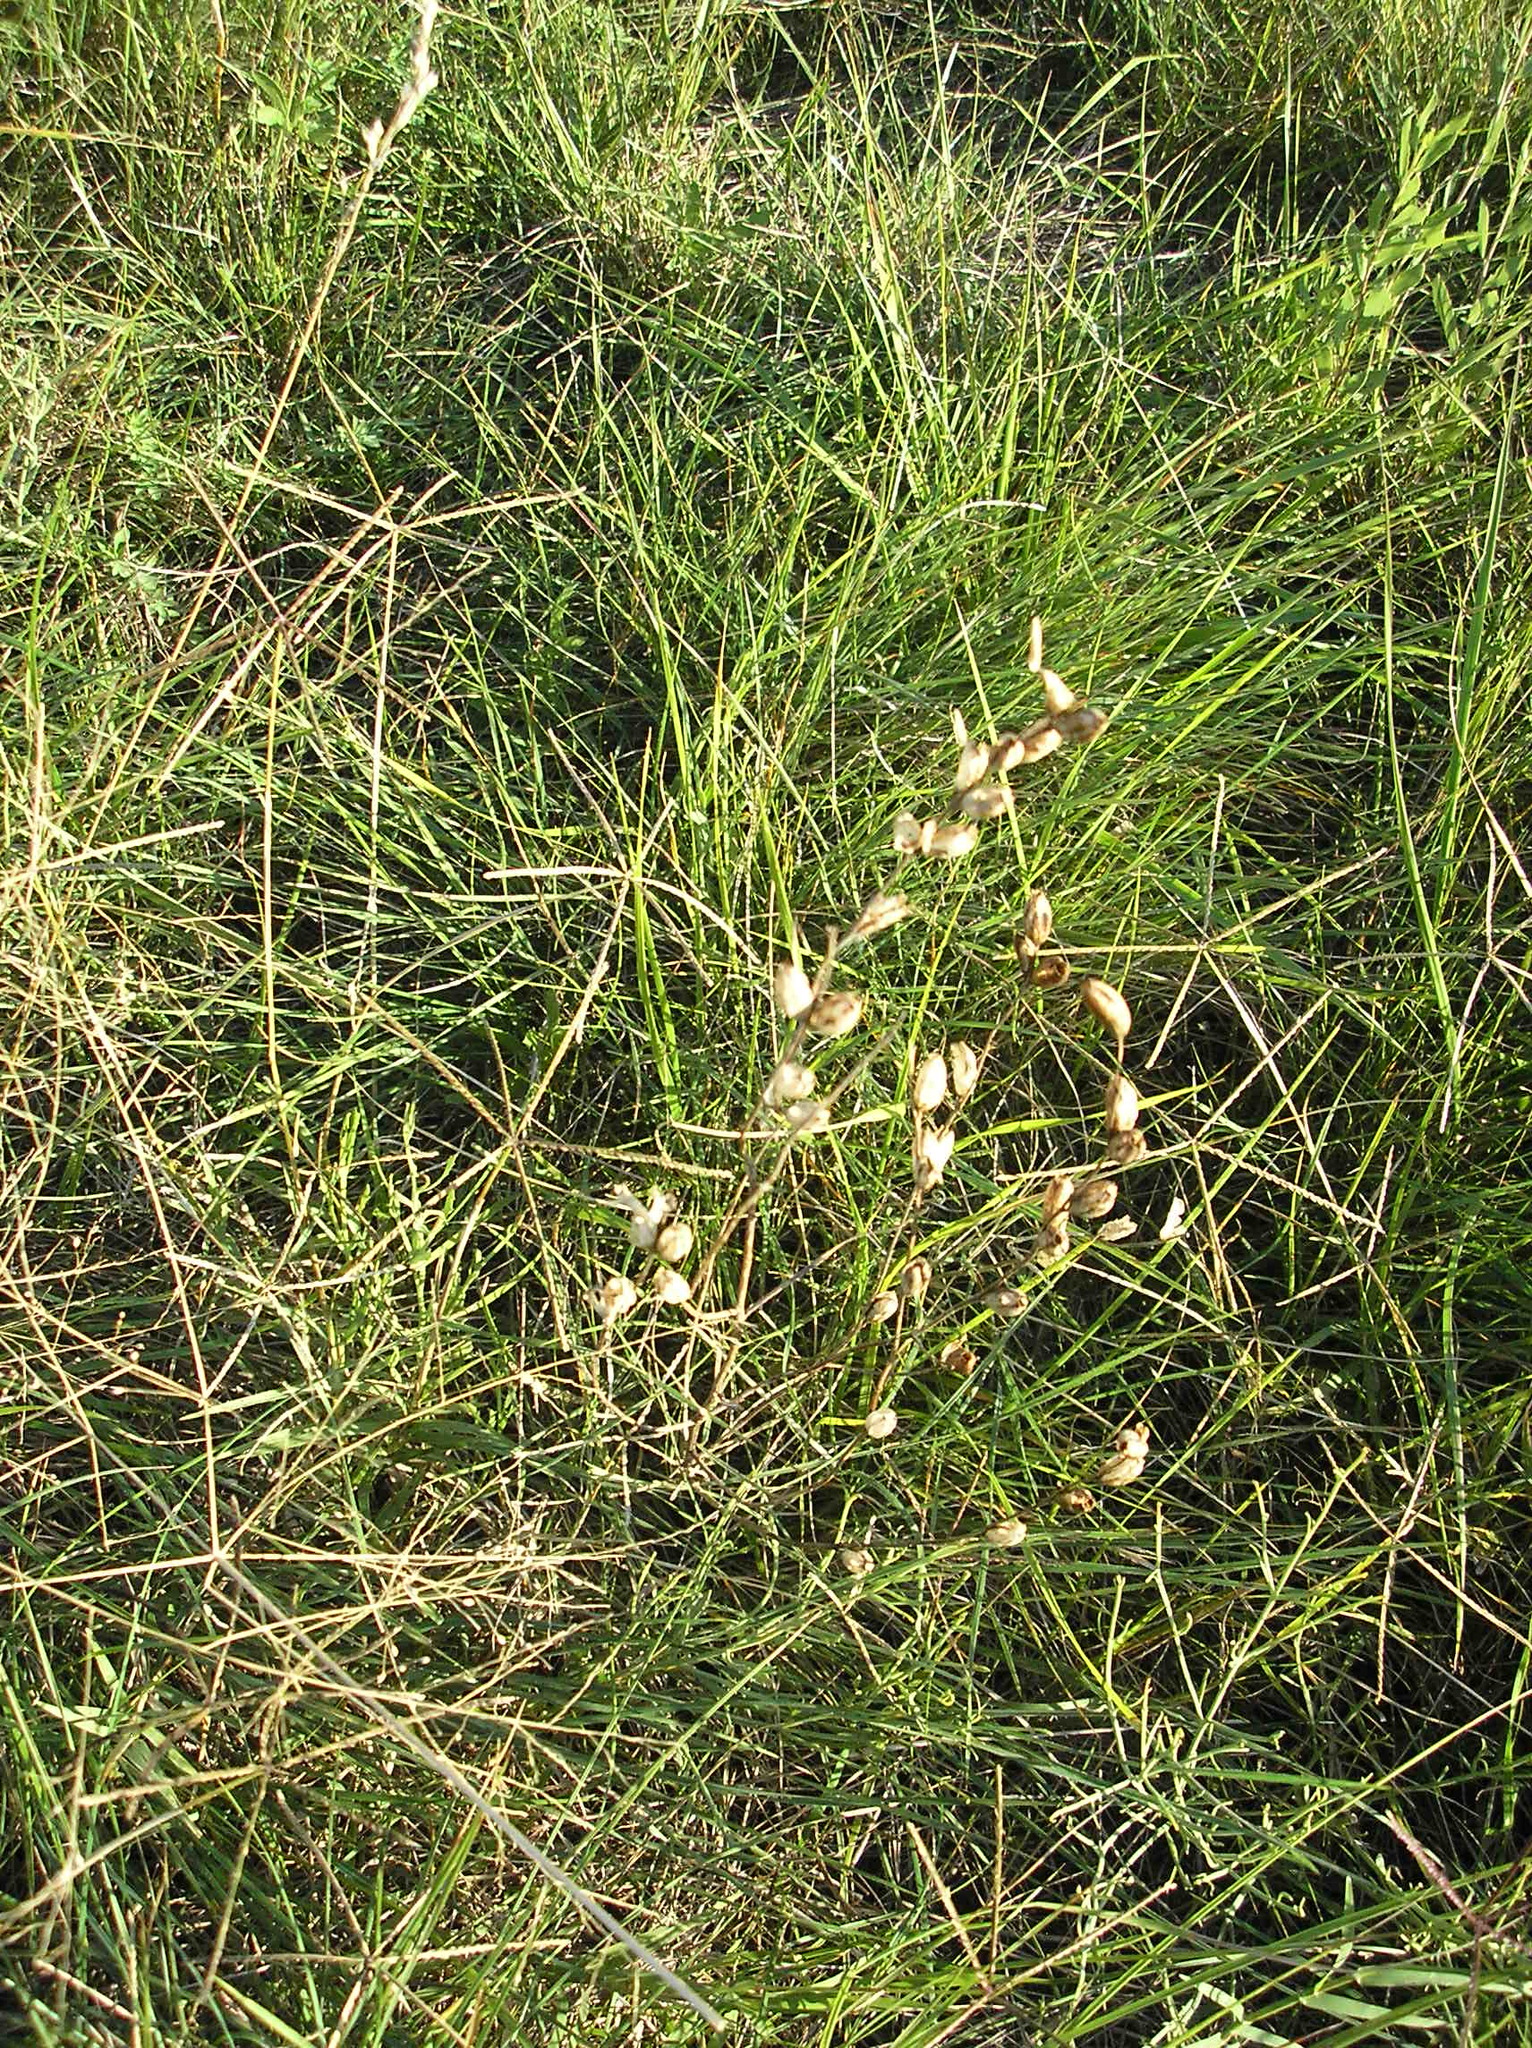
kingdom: Plantae
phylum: Tracheophyta
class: Magnoliopsida
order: Lamiales
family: Orobanchaceae
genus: Agalinis
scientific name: Agalinis communis
